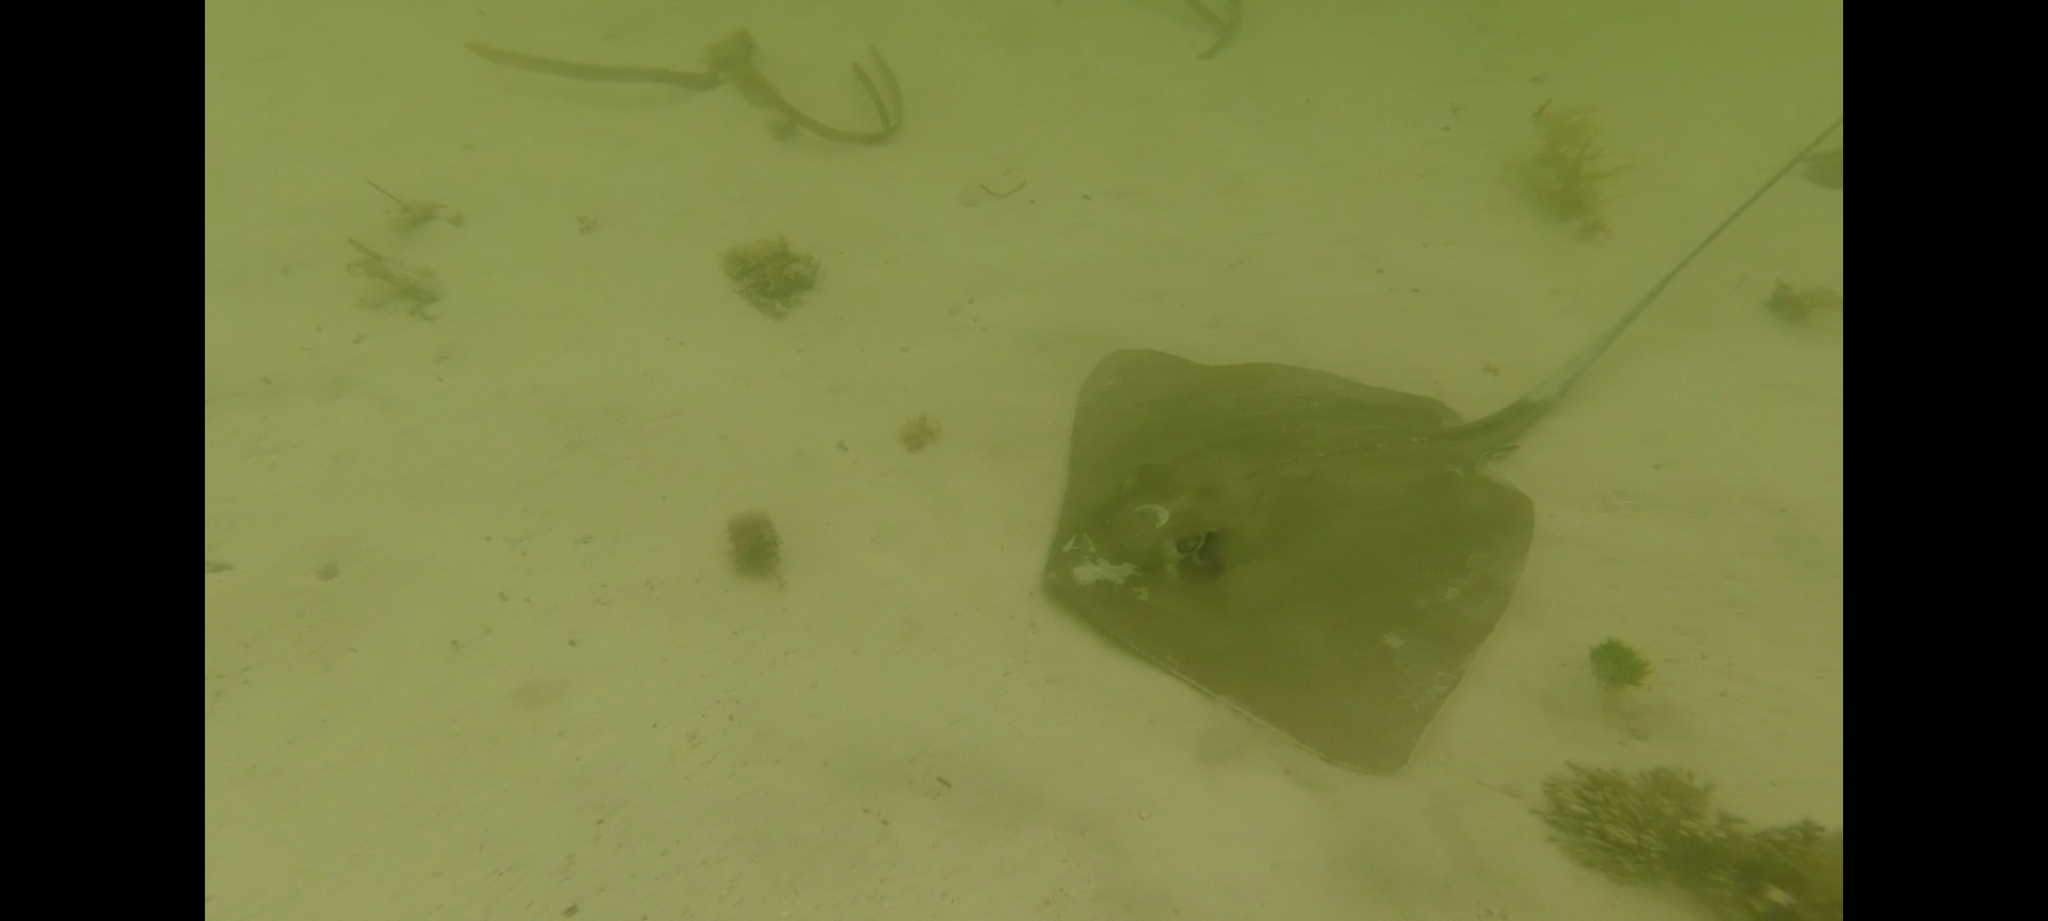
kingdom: Animalia
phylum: Chordata
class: Elasmobranchii
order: Myliobatiformes
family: Dasyatidae
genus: Hypanus
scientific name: Hypanus americanus
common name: Southern stingray
